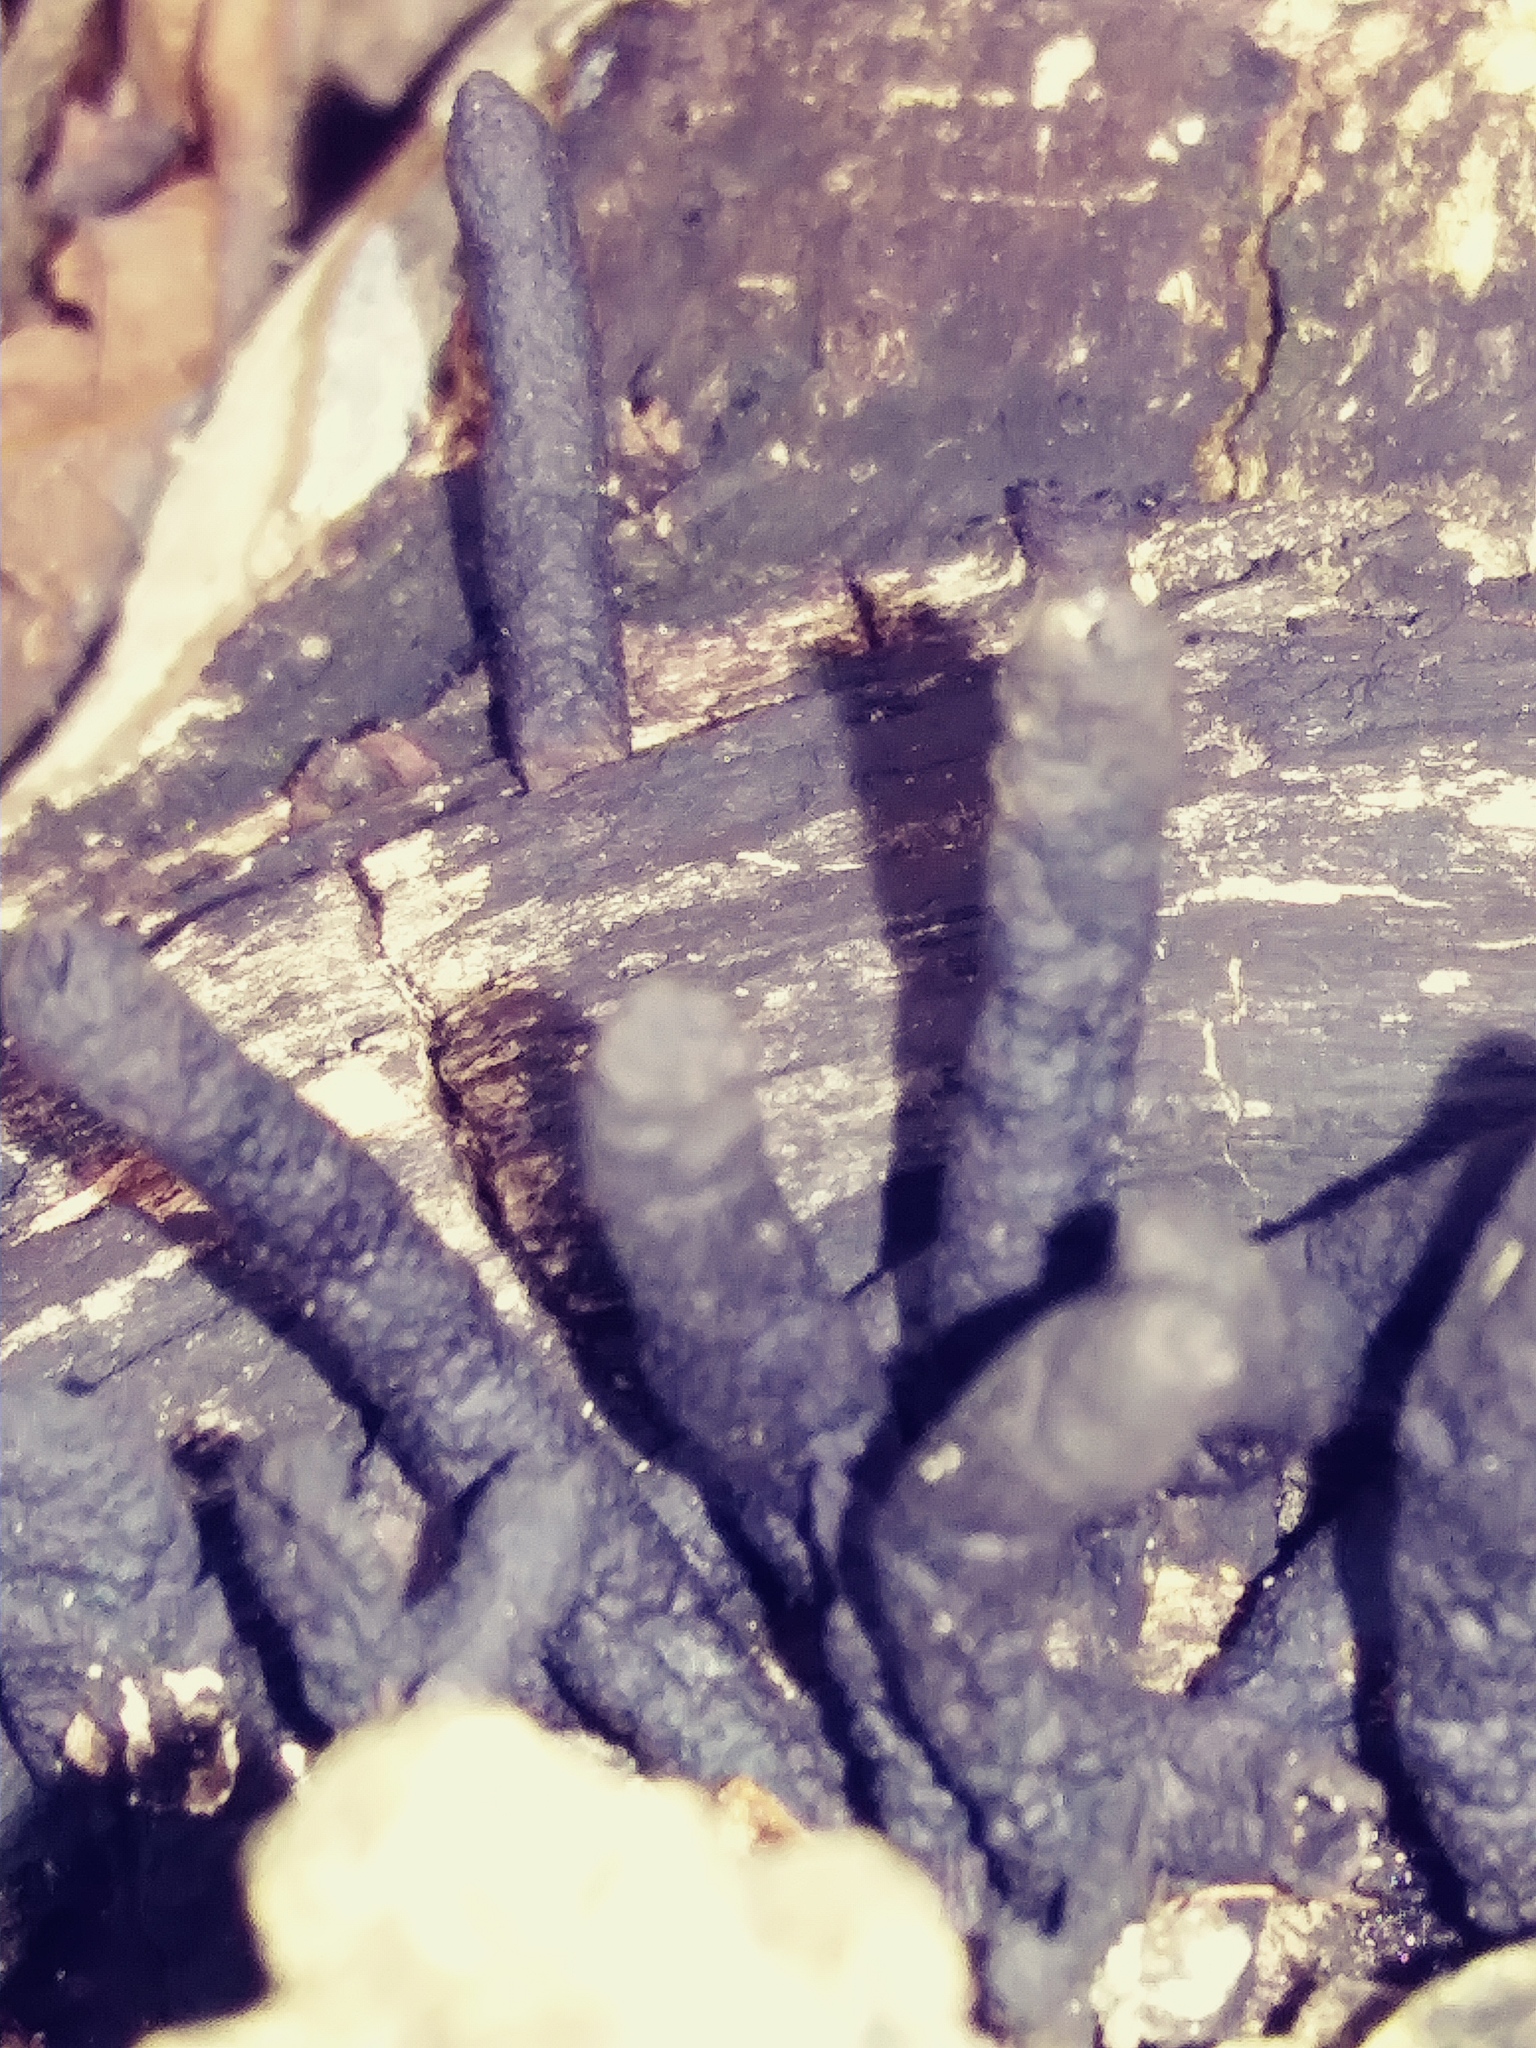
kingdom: Fungi
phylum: Ascomycota
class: Sordariomycetes
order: Xylariales
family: Xylariaceae
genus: Xylaria
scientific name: Xylaria longipes
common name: Dead moll's fingers
